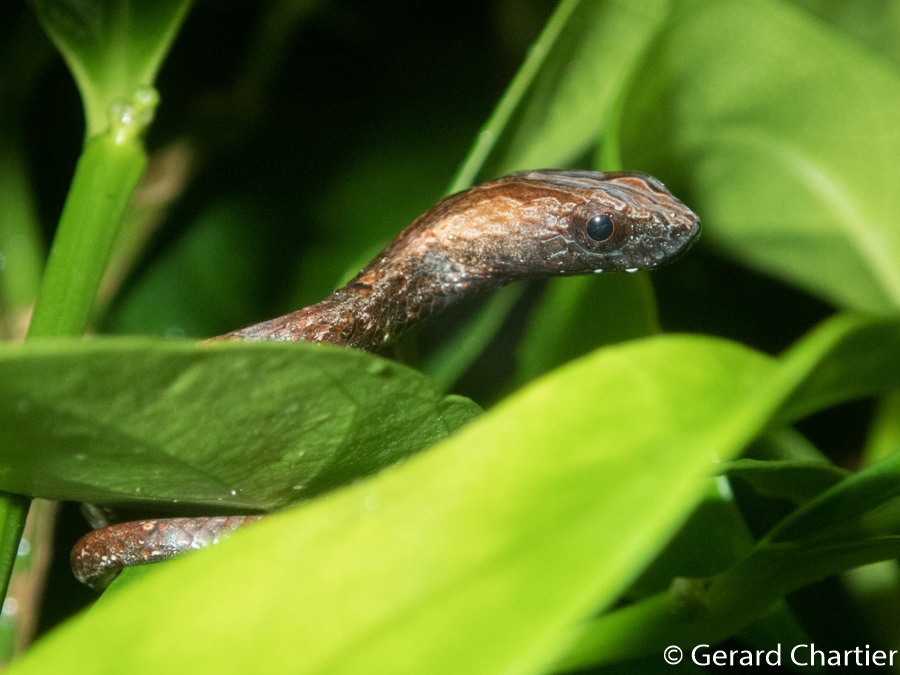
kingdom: Animalia
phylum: Chordata
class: Squamata
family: Pseudaspididae
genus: Psammodynastes
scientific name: Psammodynastes pulverulentus
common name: Common mock viper
